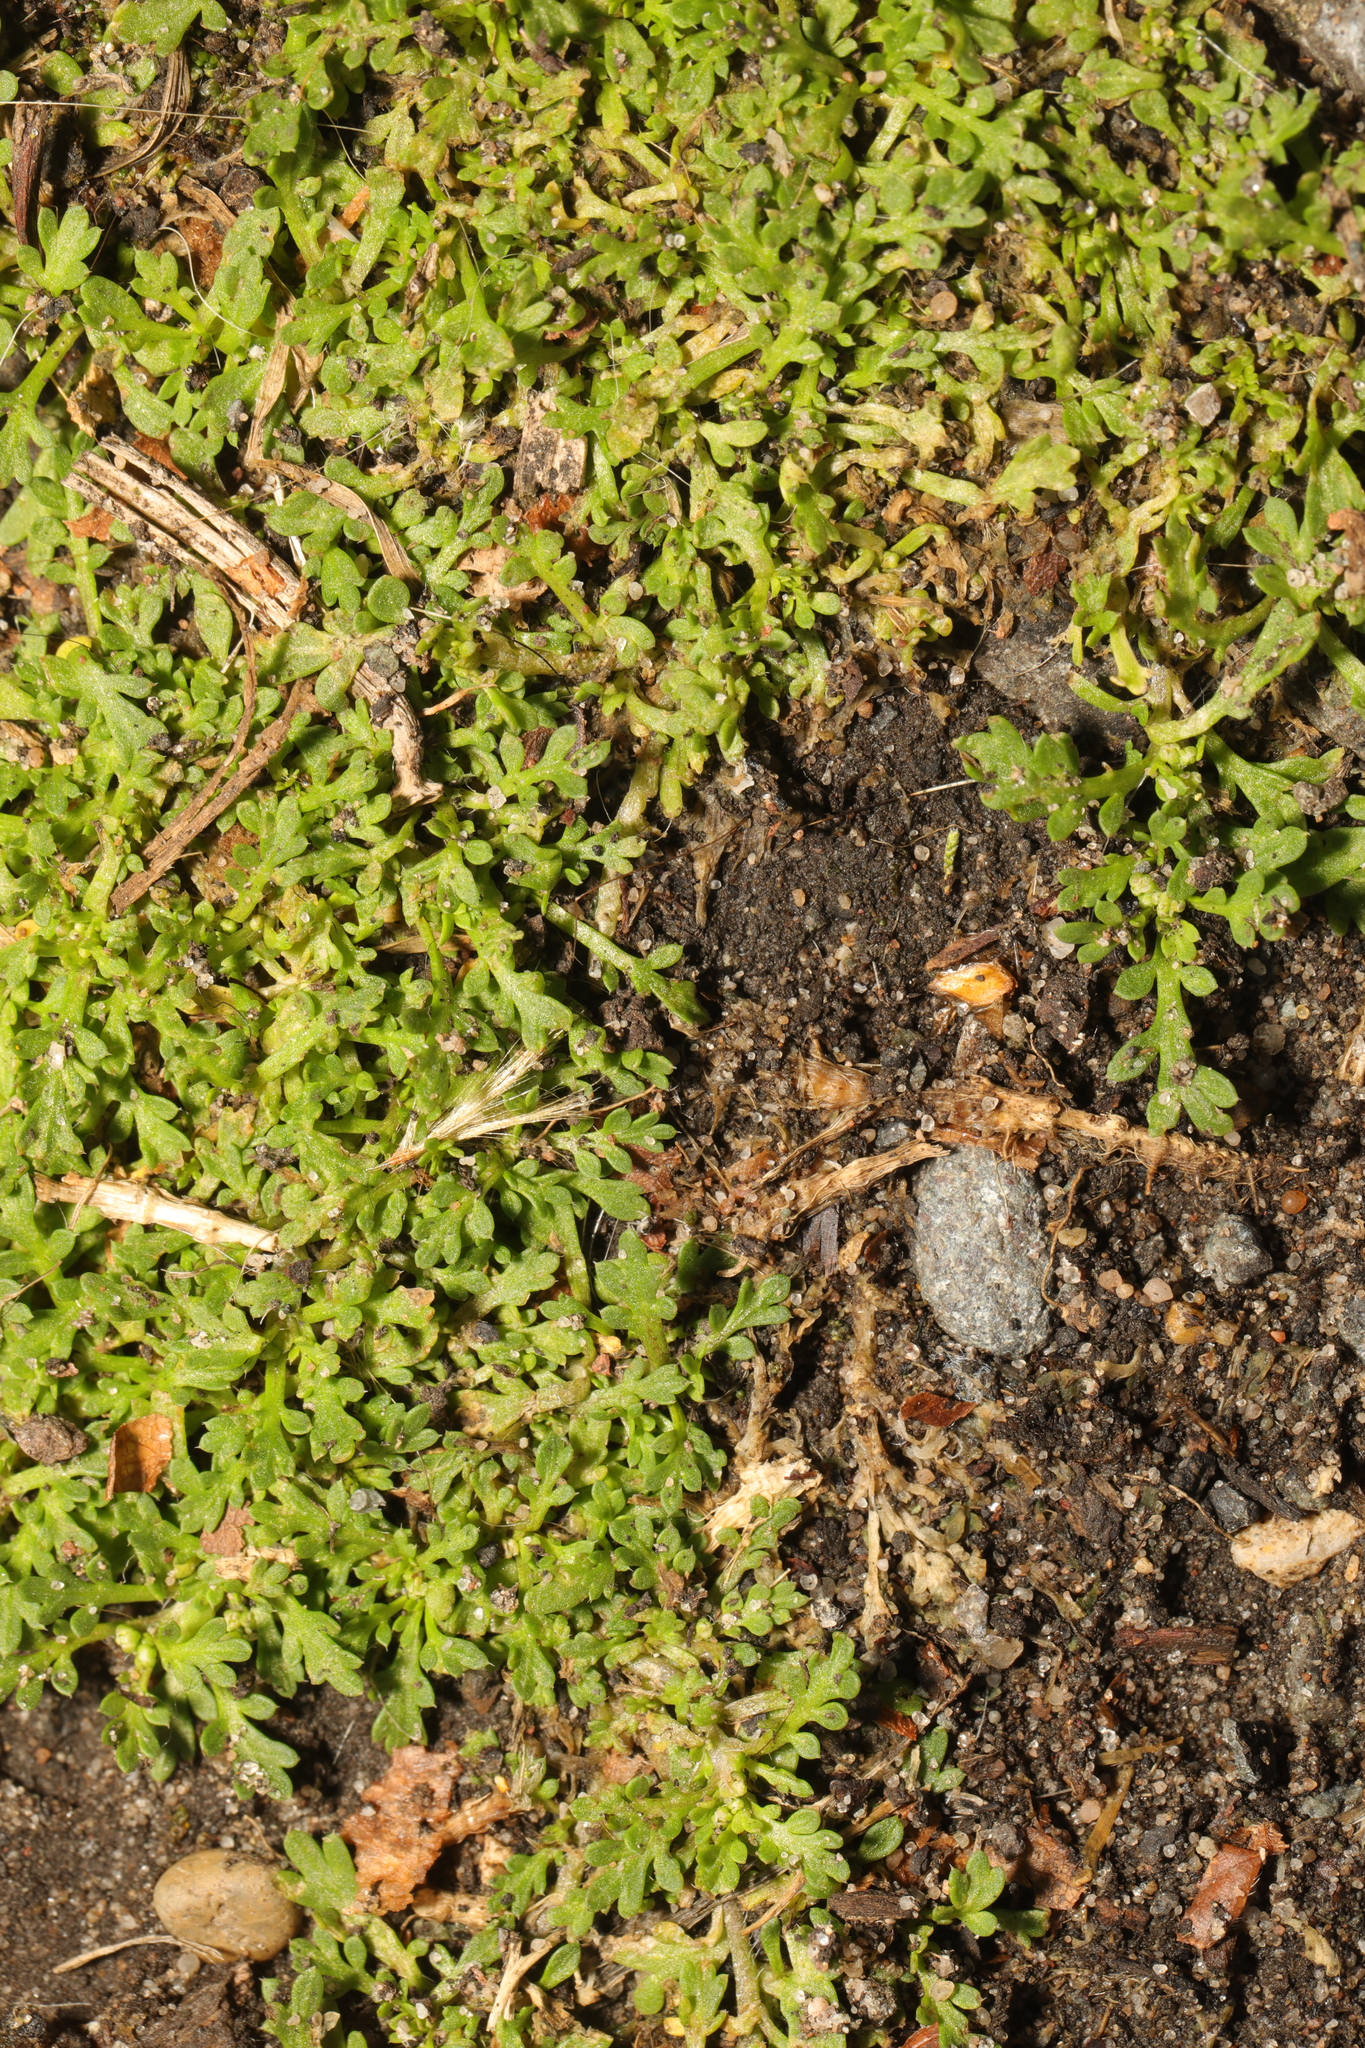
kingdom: Plantae
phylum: Tracheophyta
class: Magnoliopsida
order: Brassicales
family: Brassicaceae
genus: Lepidium
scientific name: Lepidium didymum
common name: Lesser swinecress
